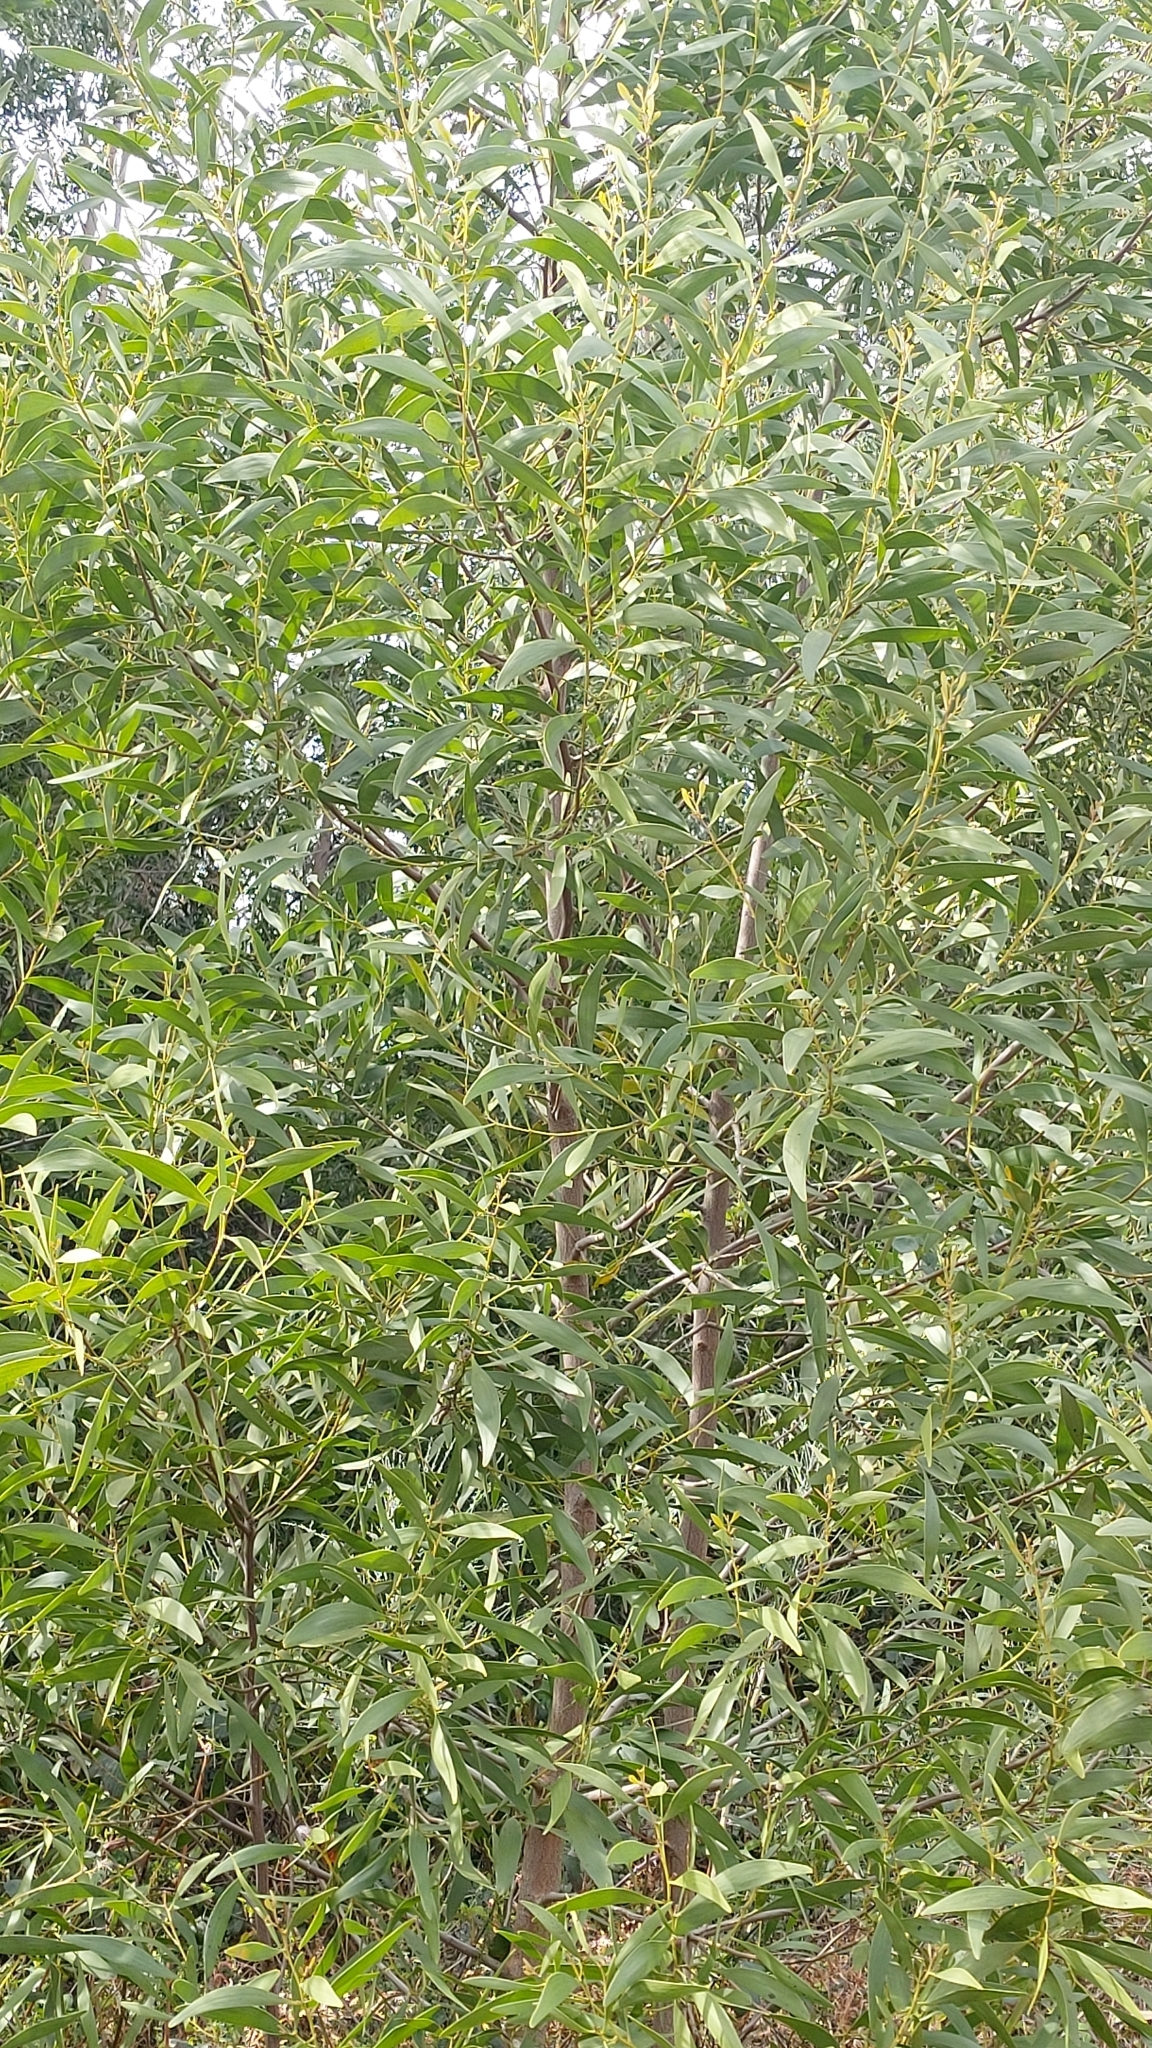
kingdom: Plantae
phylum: Tracheophyta
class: Magnoliopsida
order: Fabales
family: Fabaceae
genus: Acacia
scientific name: Acacia melanoxylon
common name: Blackwood
